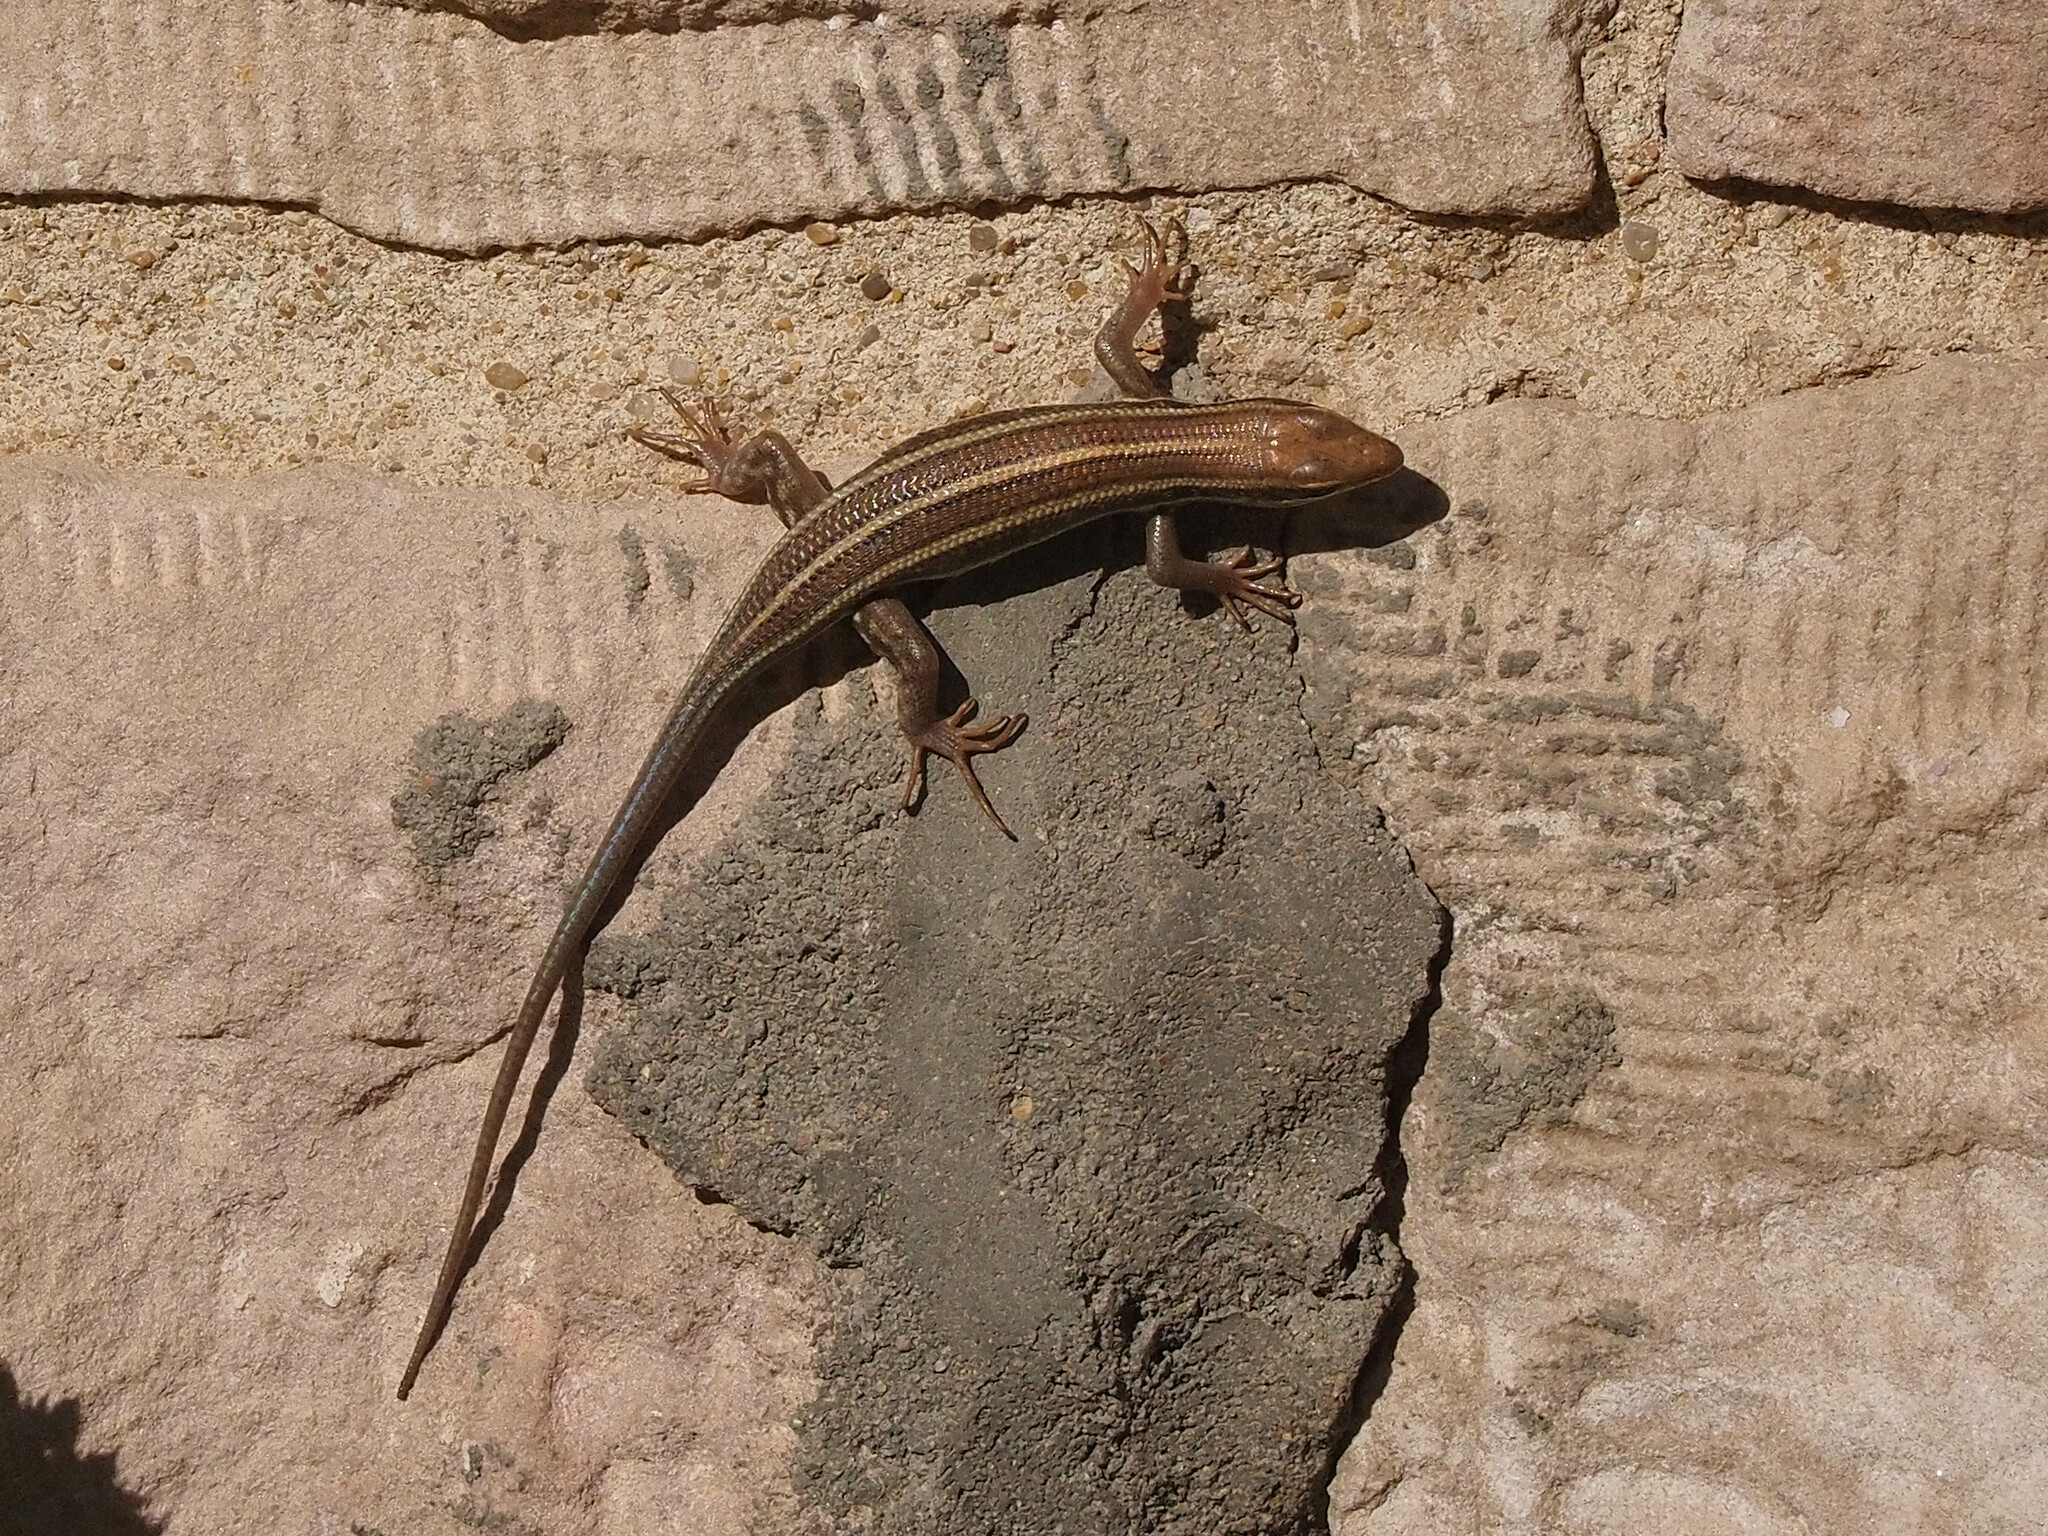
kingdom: Animalia
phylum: Chordata
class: Squamata
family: Scincidae
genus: Trachylepis
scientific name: Trachylepis quinquetaeniata
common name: African five-lined skink
